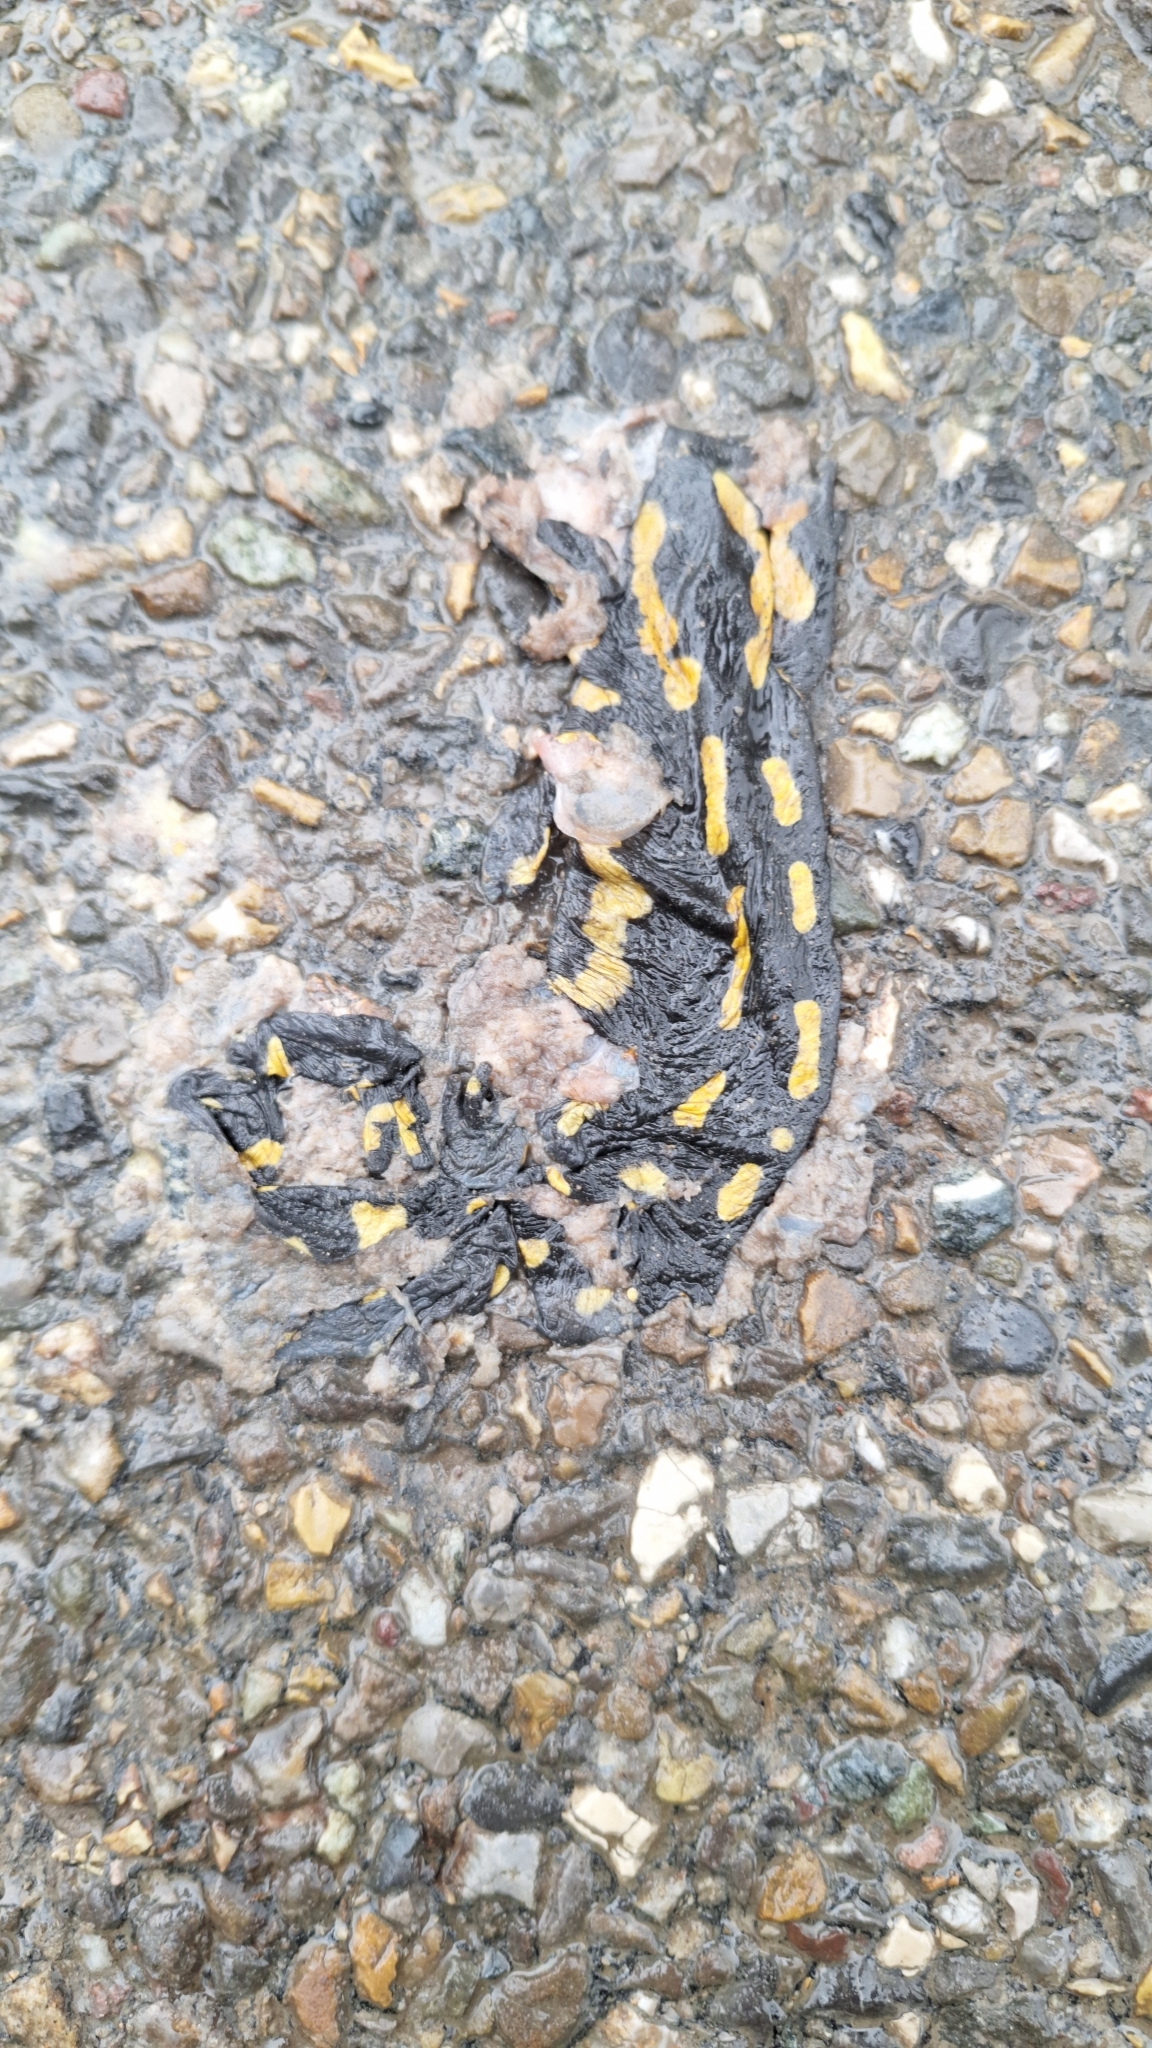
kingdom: Animalia
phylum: Chordata
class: Amphibia
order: Caudata
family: Salamandridae
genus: Salamandra
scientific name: Salamandra salamandra
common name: Fire salamander
